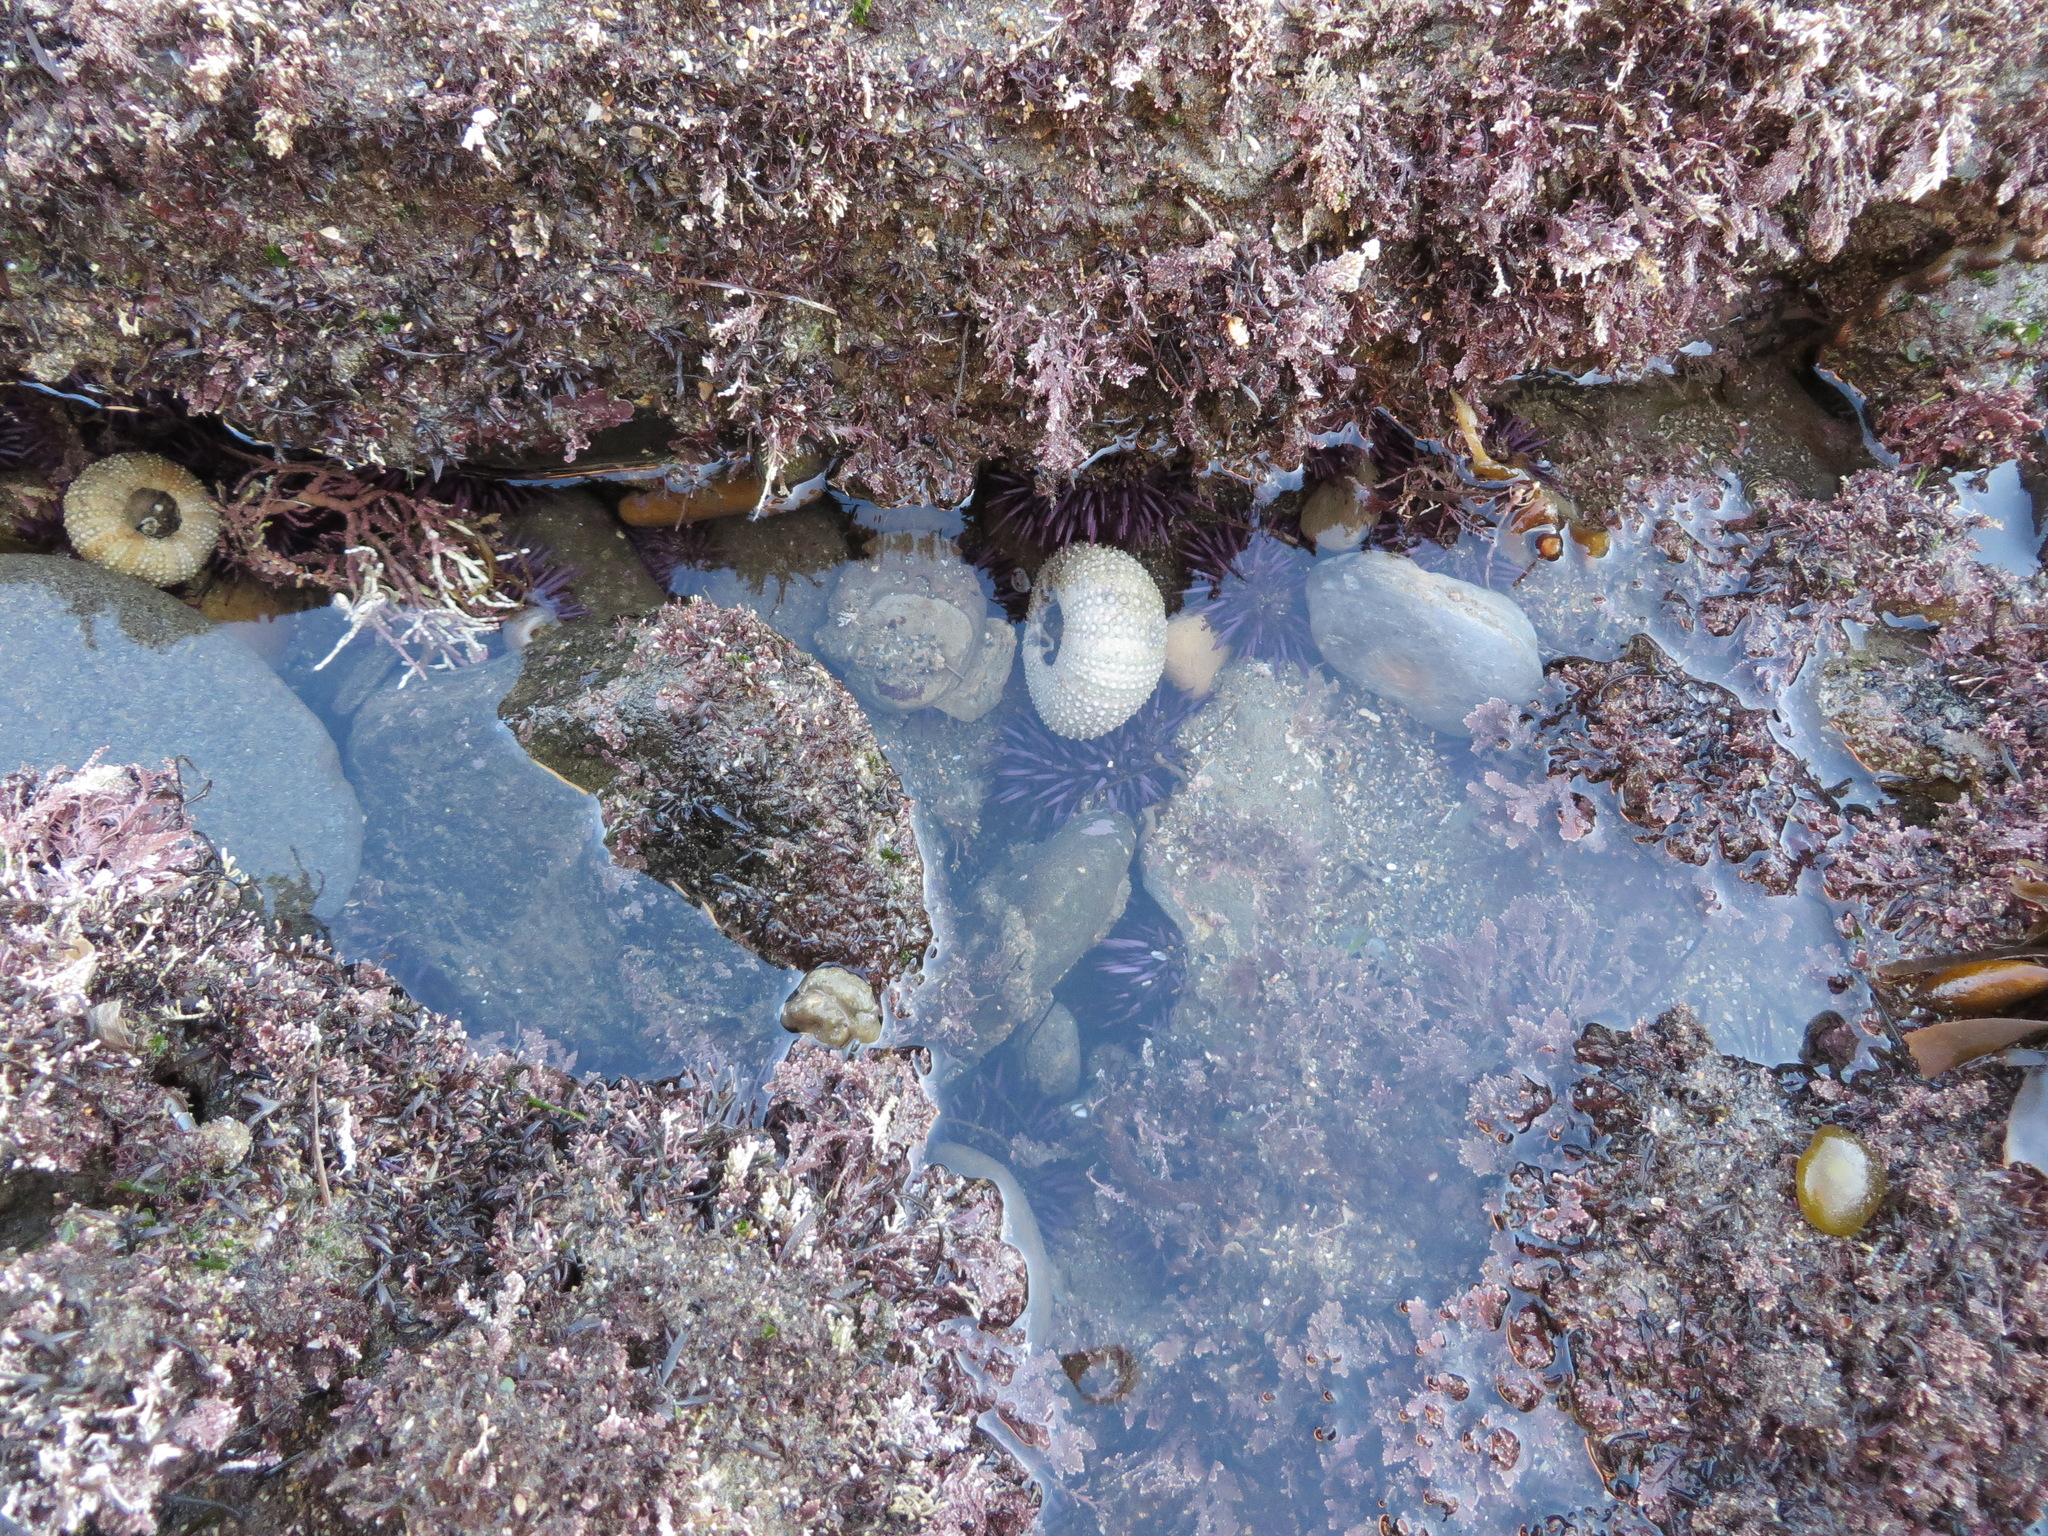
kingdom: Animalia
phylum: Echinodermata
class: Echinoidea
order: Camarodonta
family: Strongylocentrotidae
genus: Strongylocentrotus
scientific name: Strongylocentrotus purpuratus
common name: Purple sea urchin
